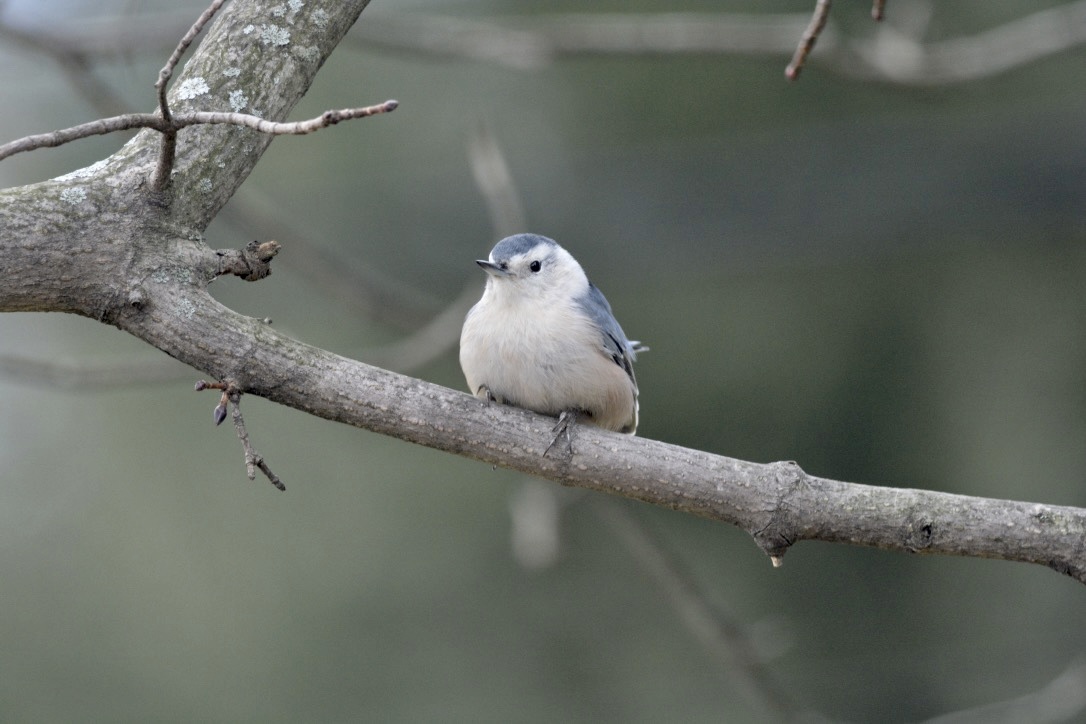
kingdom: Animalia
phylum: Chordata
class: Aves
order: Passeriformes
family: Sittidae
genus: Sitta
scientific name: Sitta carolinensis
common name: White-breasted nuthatch
